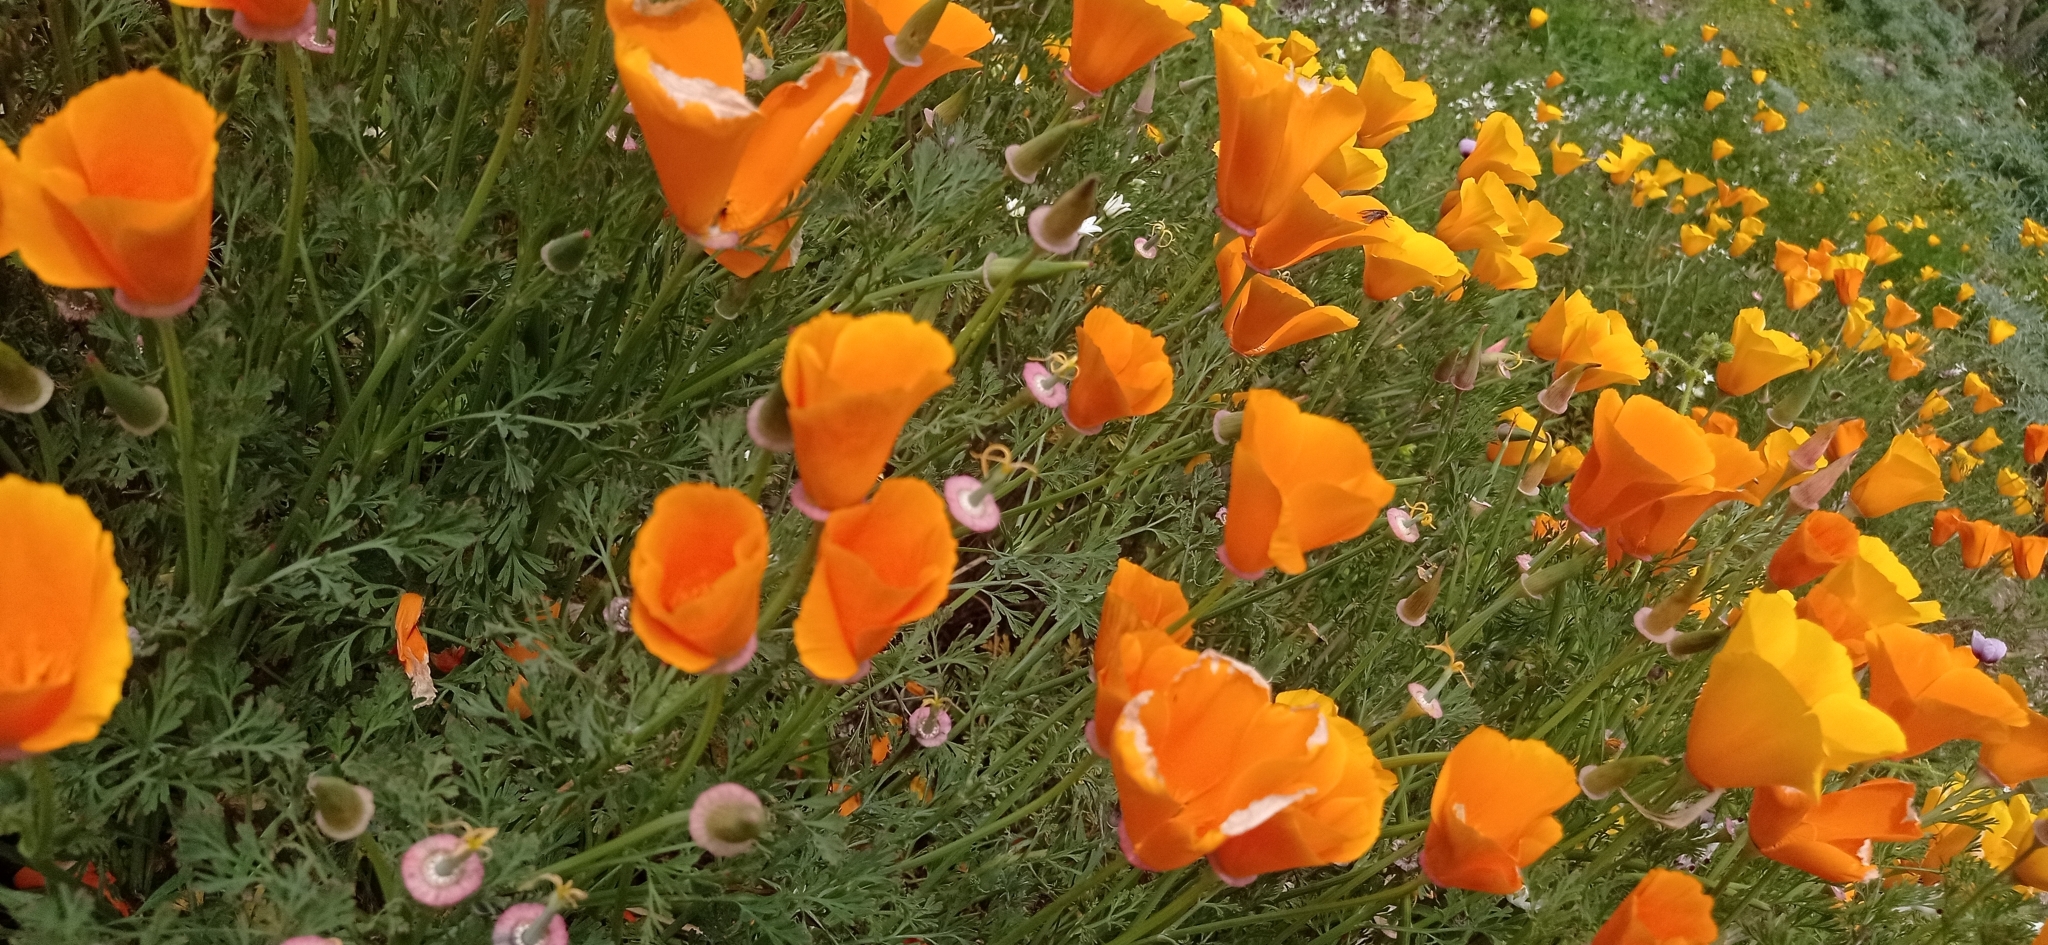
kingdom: Plantae
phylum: Tracheophyta
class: Magnoliopsida
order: Ranunculales
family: Papaveraceae
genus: Eschscholzia
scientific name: Eschscholzia californica
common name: California poppy
